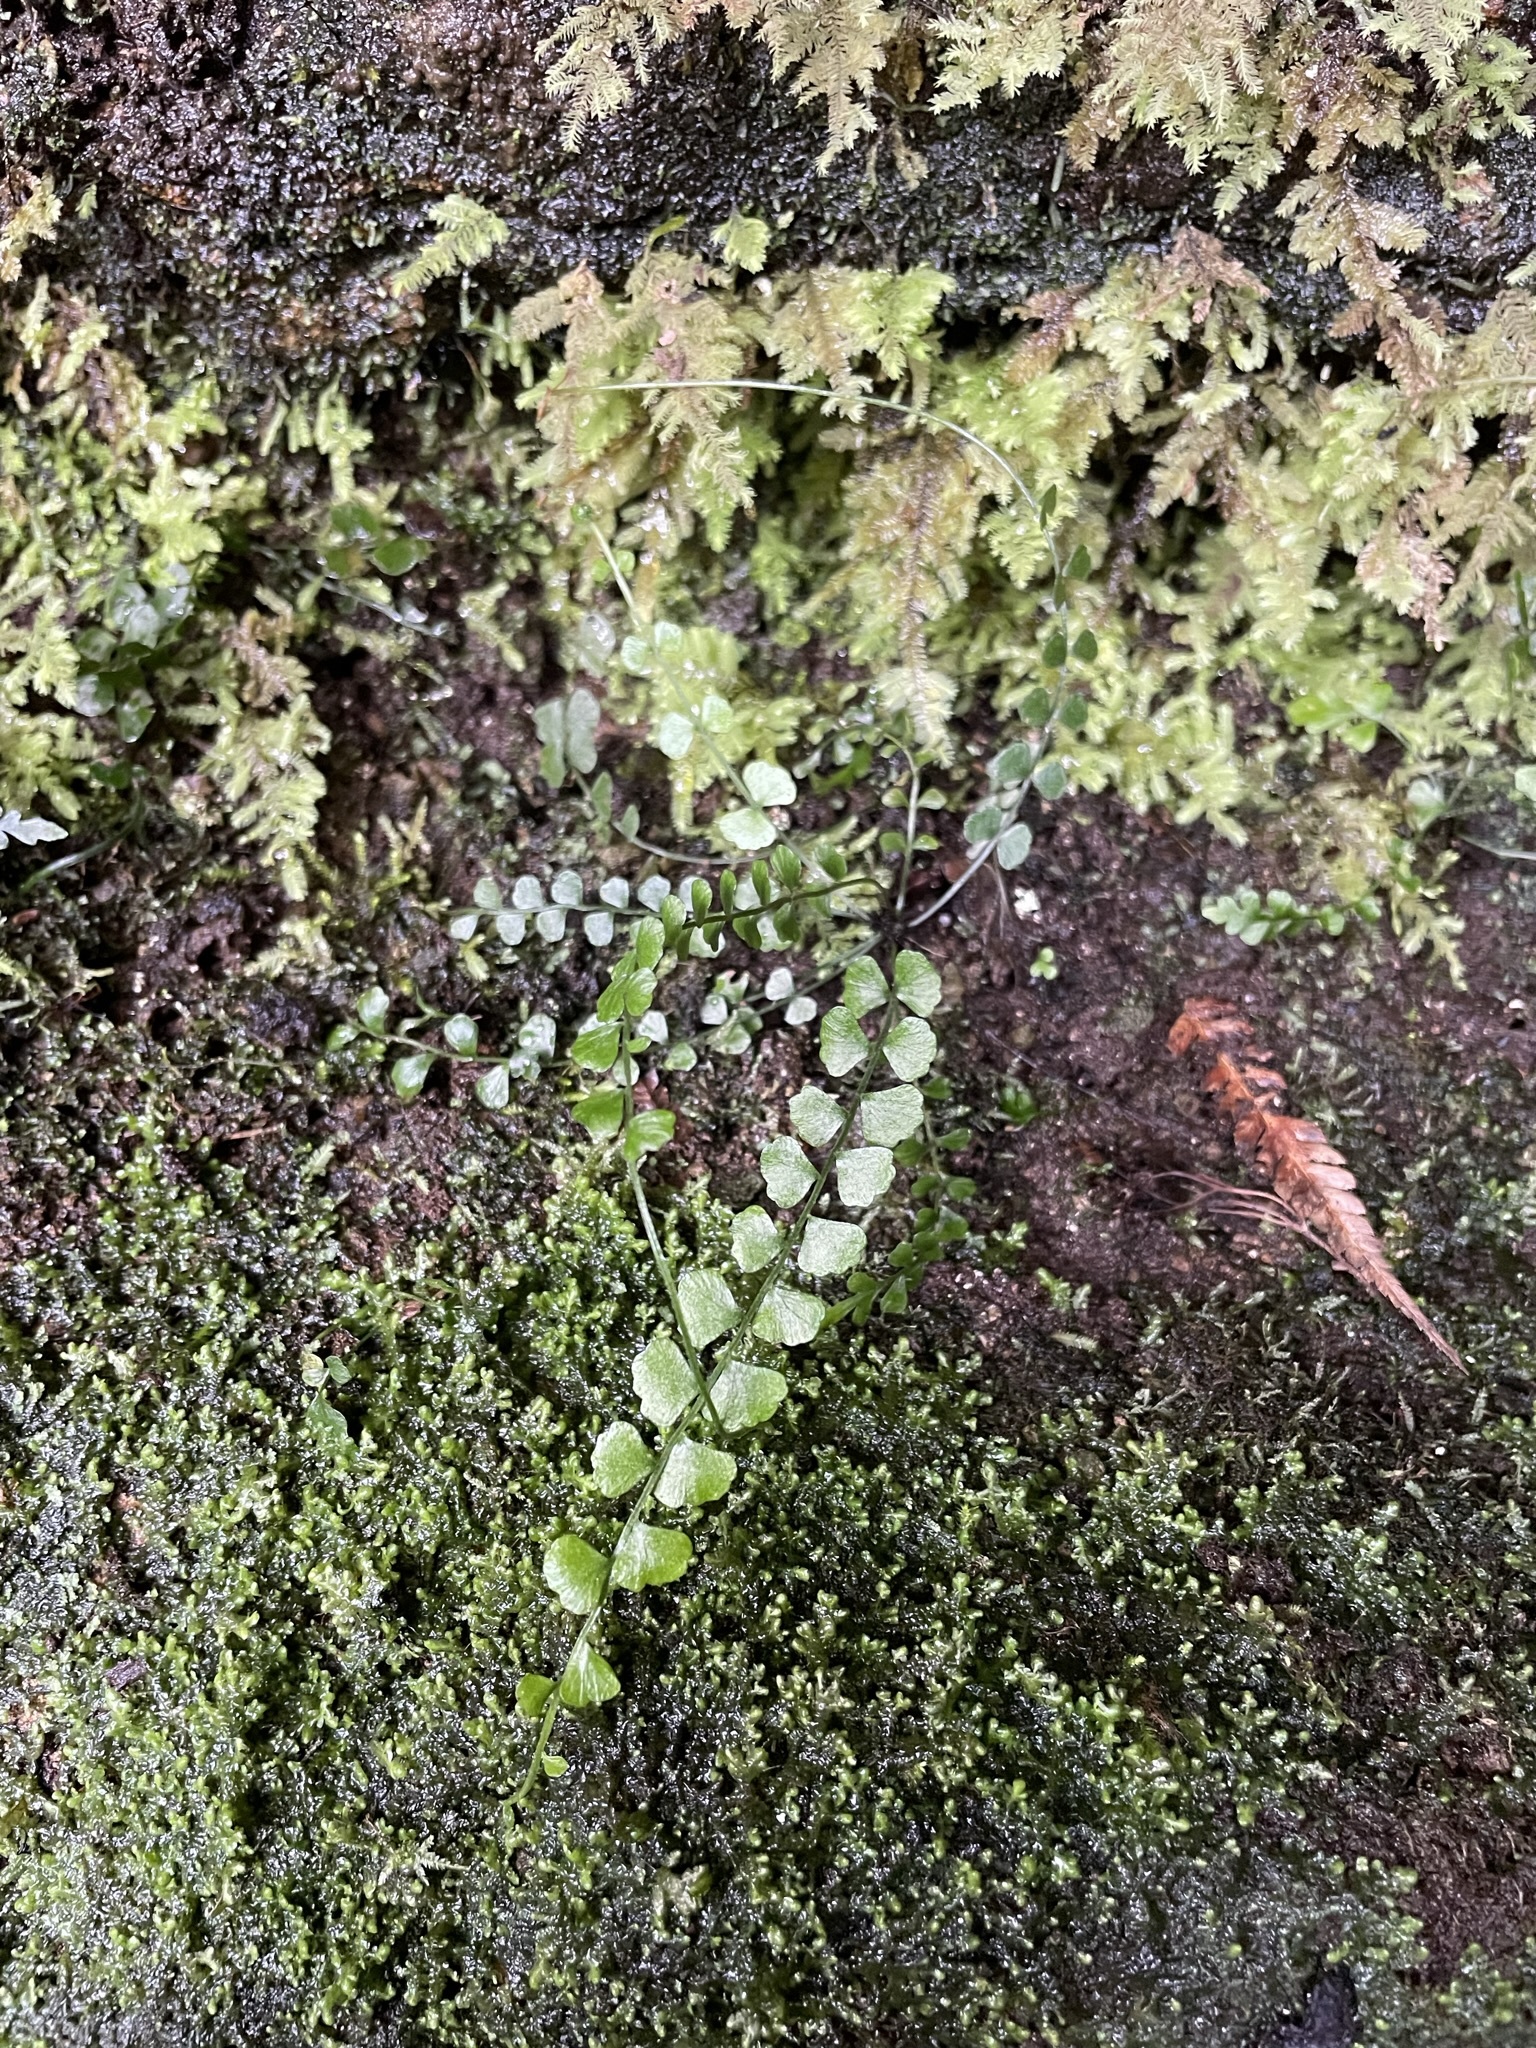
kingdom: Plantae
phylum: Tracheophyta
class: Polypodiopsida
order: Polypodiales
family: Aspleniaceae
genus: Asplenium
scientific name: Asplenium flabellifolium
